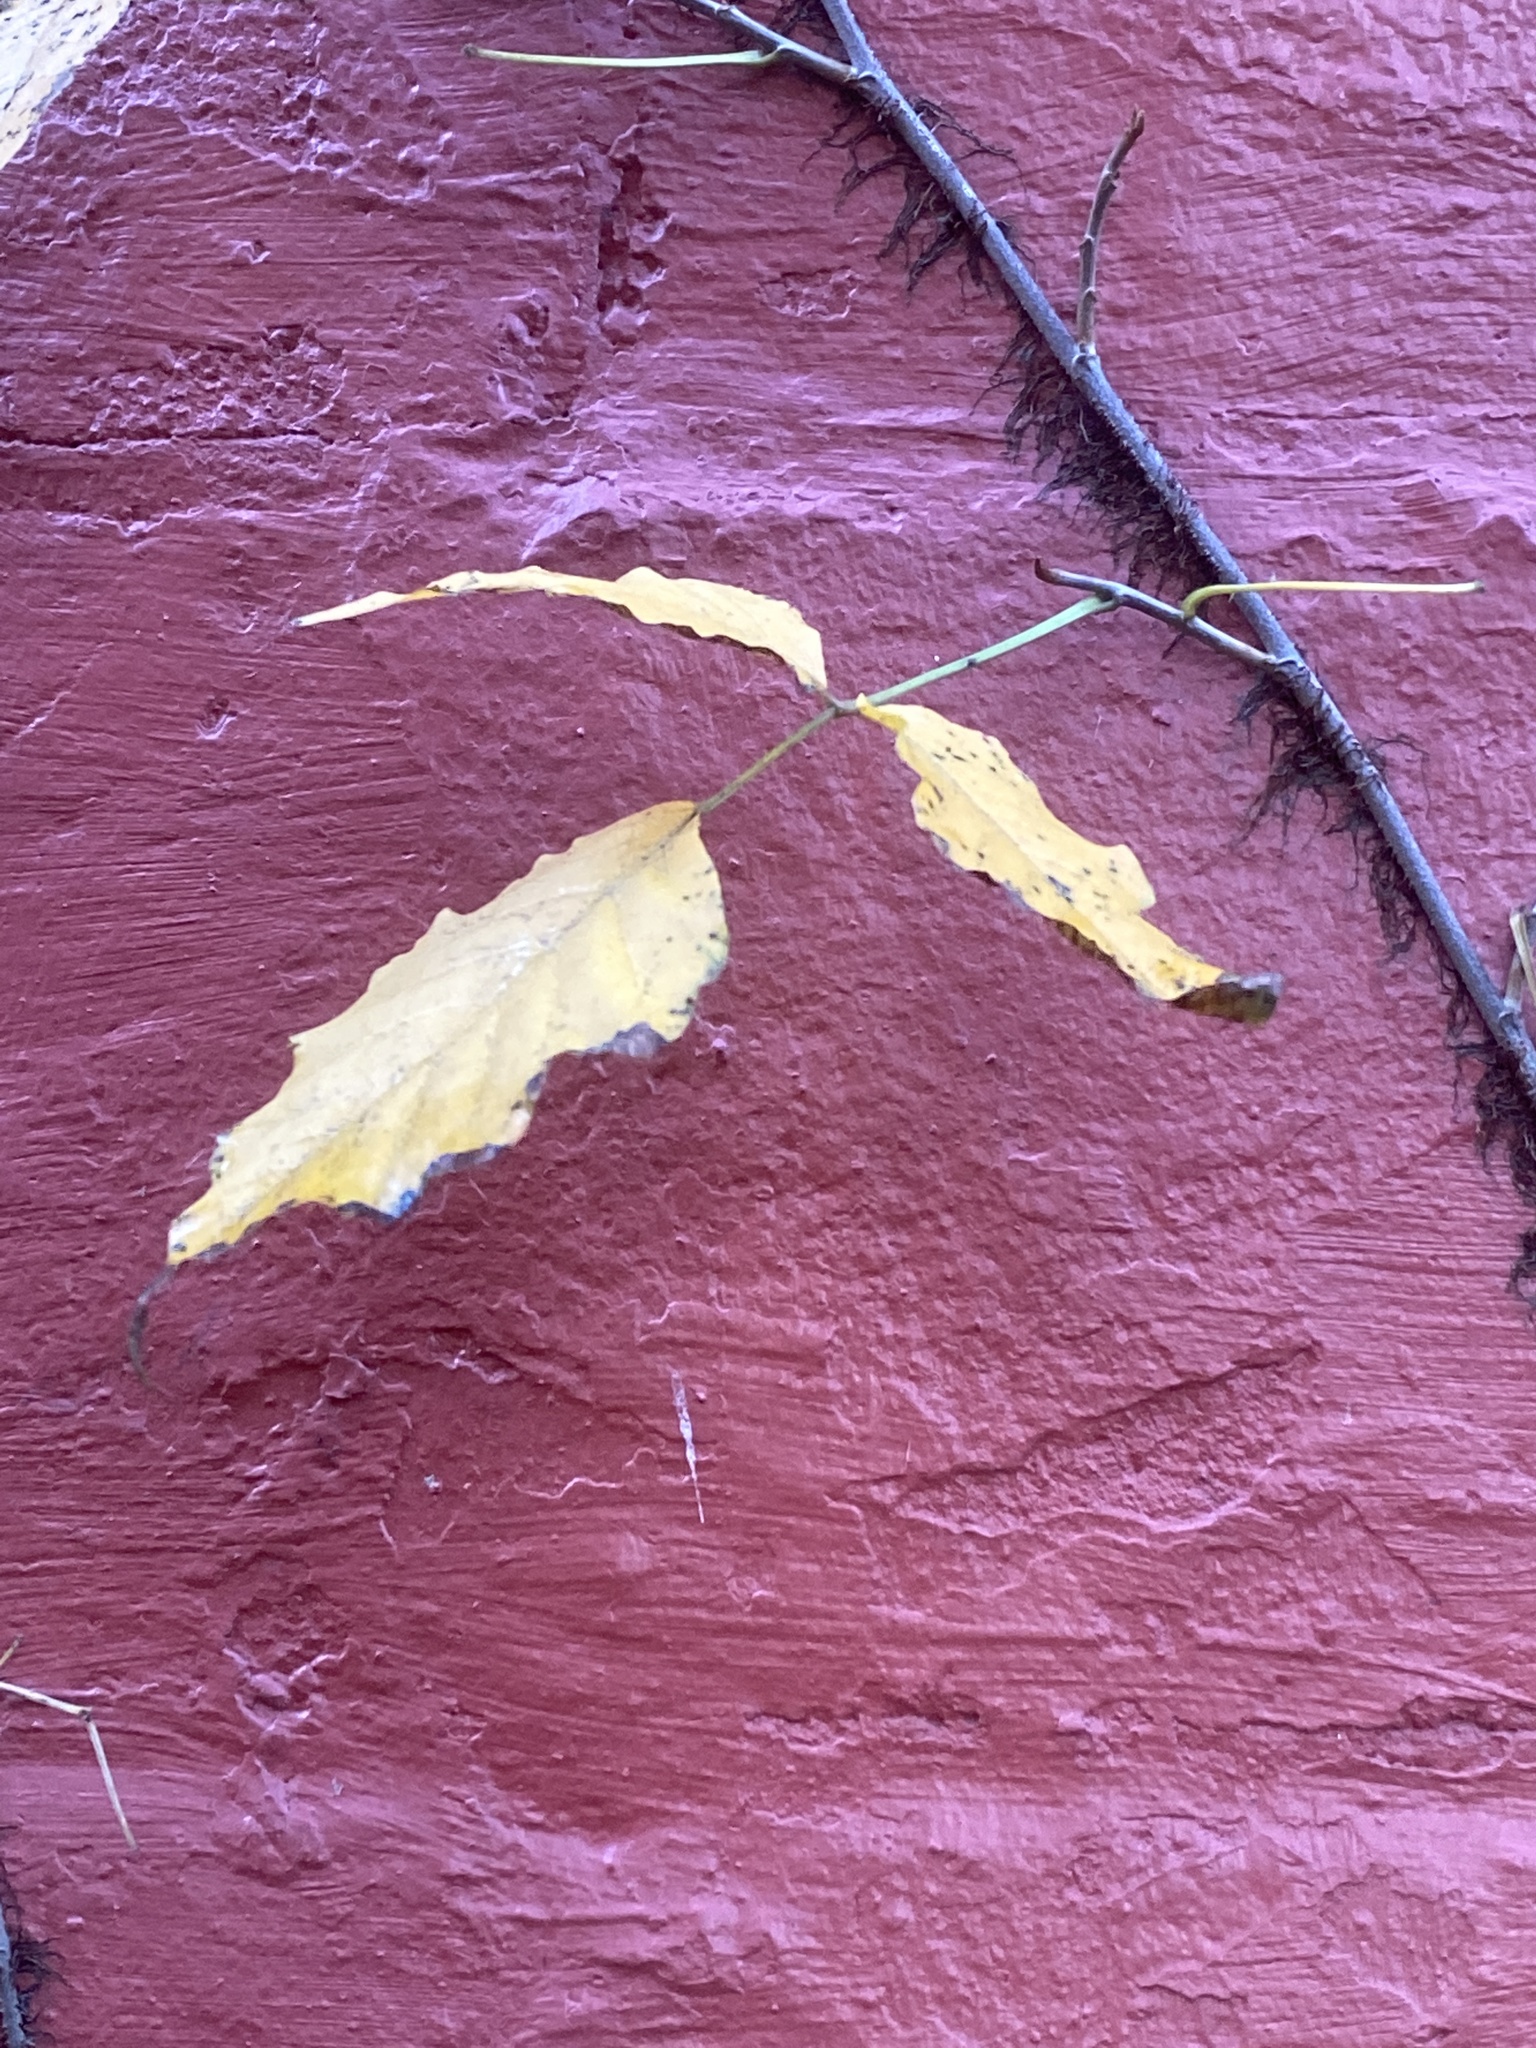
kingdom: Plantae
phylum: Tracheophyta
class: Magnoliopsida
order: Sapindales
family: Anacardiaceae
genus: Toxicodendron
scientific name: Toxicodendron radicans
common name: Poison ivy
